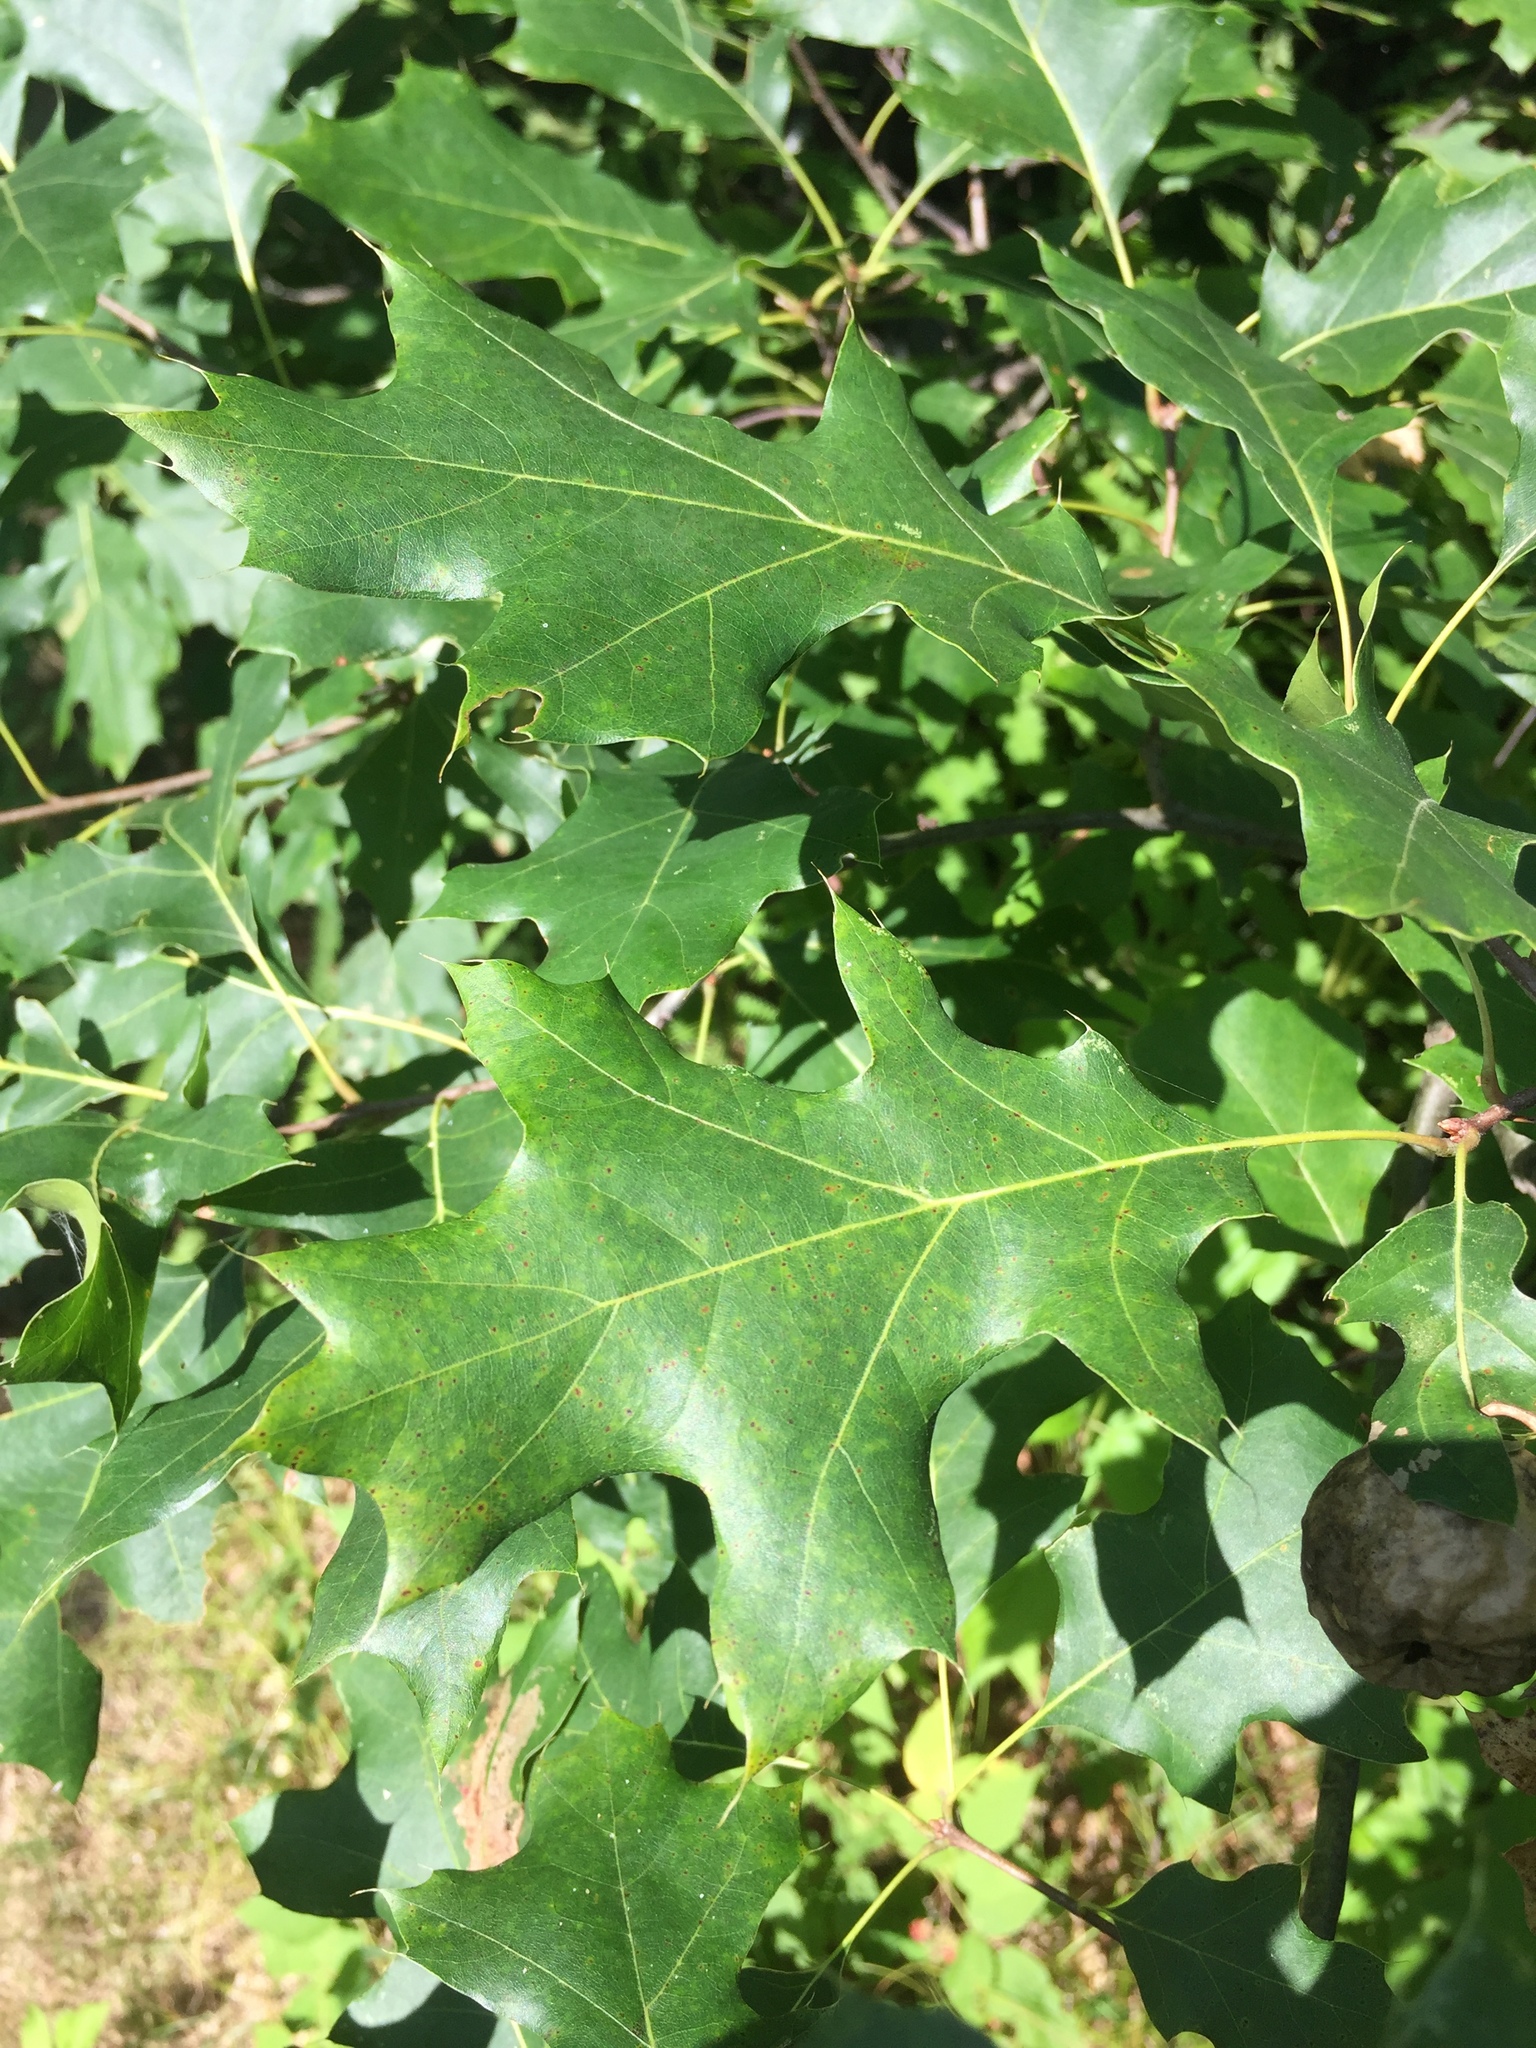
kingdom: Plantae
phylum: Tracheophyta
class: Magnoliopsida
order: Fagales
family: Fagaceae
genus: Quercus
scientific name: Quercus rubra
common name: Red oak
